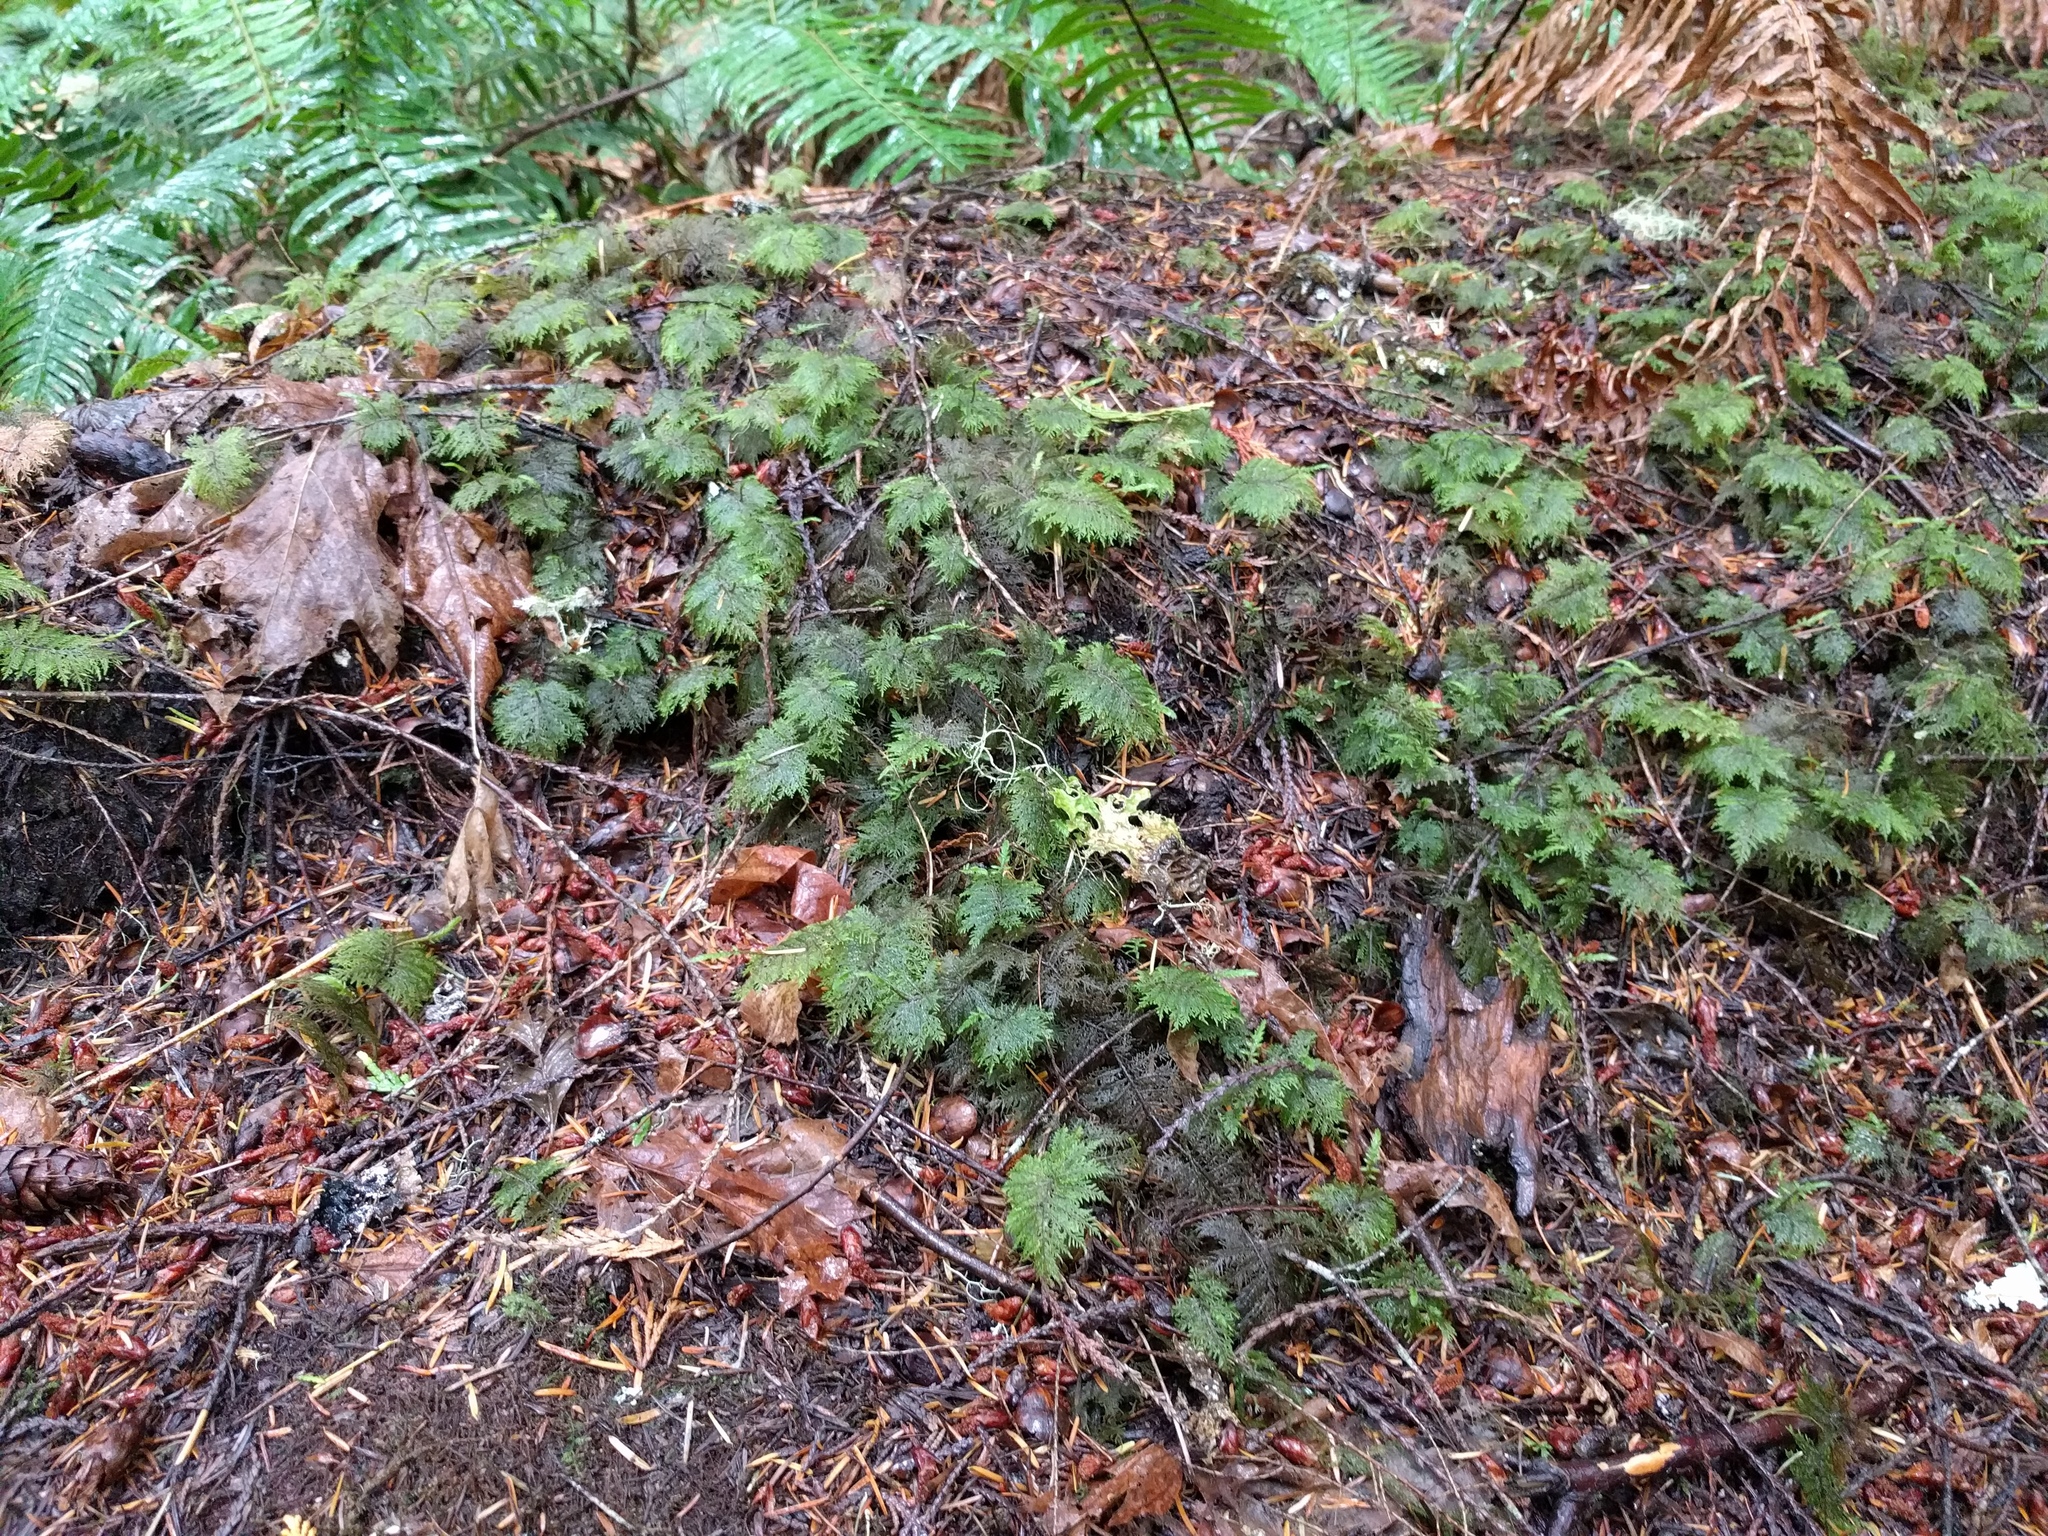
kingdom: Plantae
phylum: Bryophyta
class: Bryopsida
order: Hypnales
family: Hylocomiaceae
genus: Hylocomium
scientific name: Hylocomium splendens
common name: Stairstep moss
